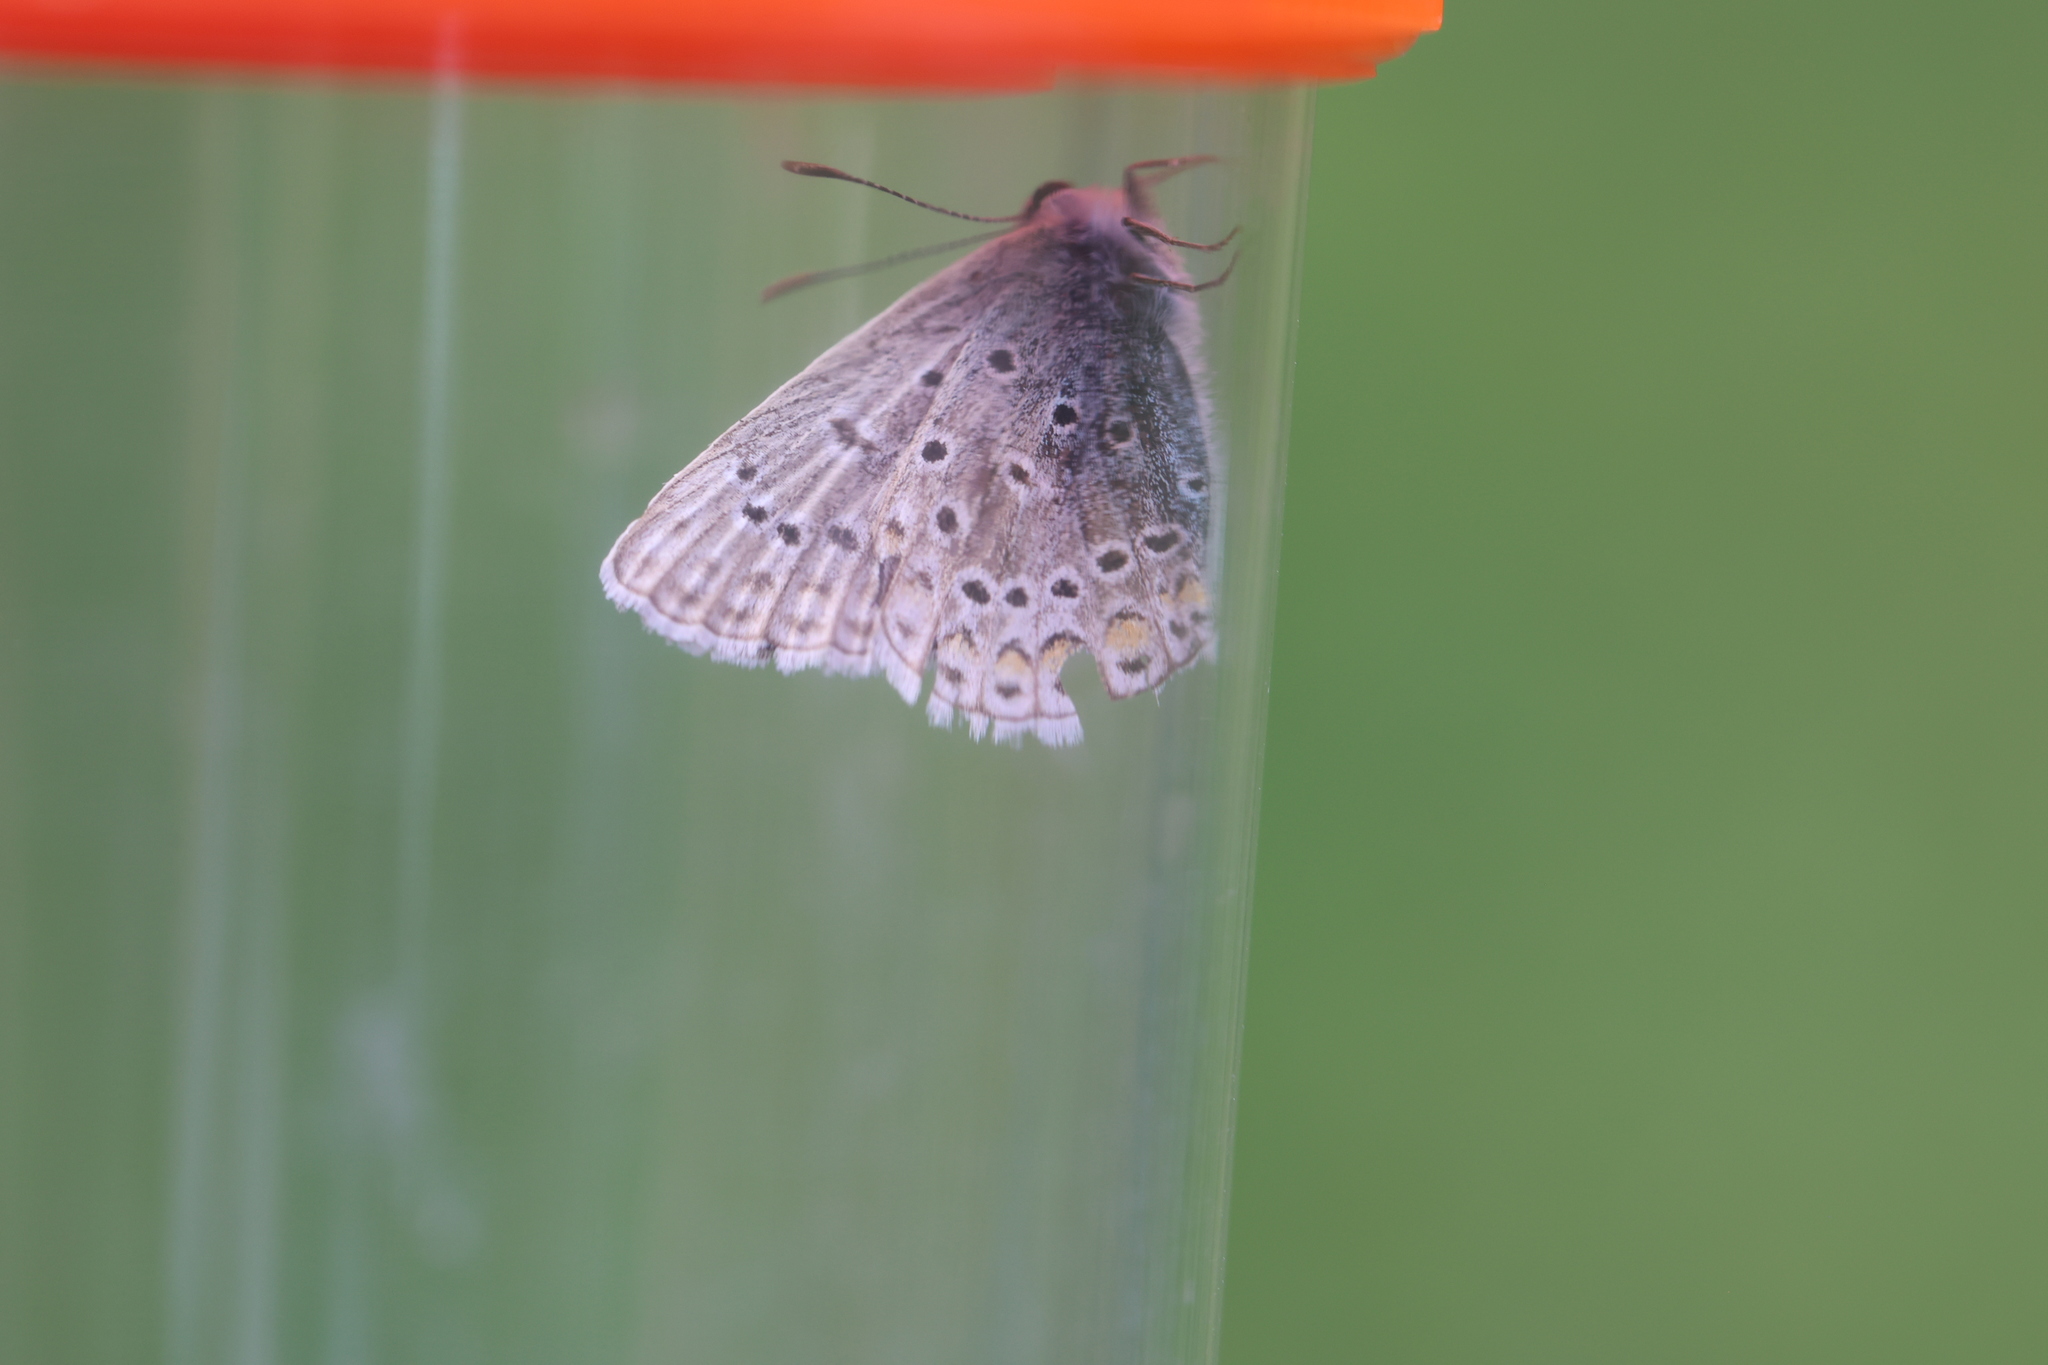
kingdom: Animalia
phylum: Arthropoda
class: Insecta
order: Lepidoptera
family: Lycaenidae
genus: Polyommatus
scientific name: Polyommatus icarus
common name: Common blue
